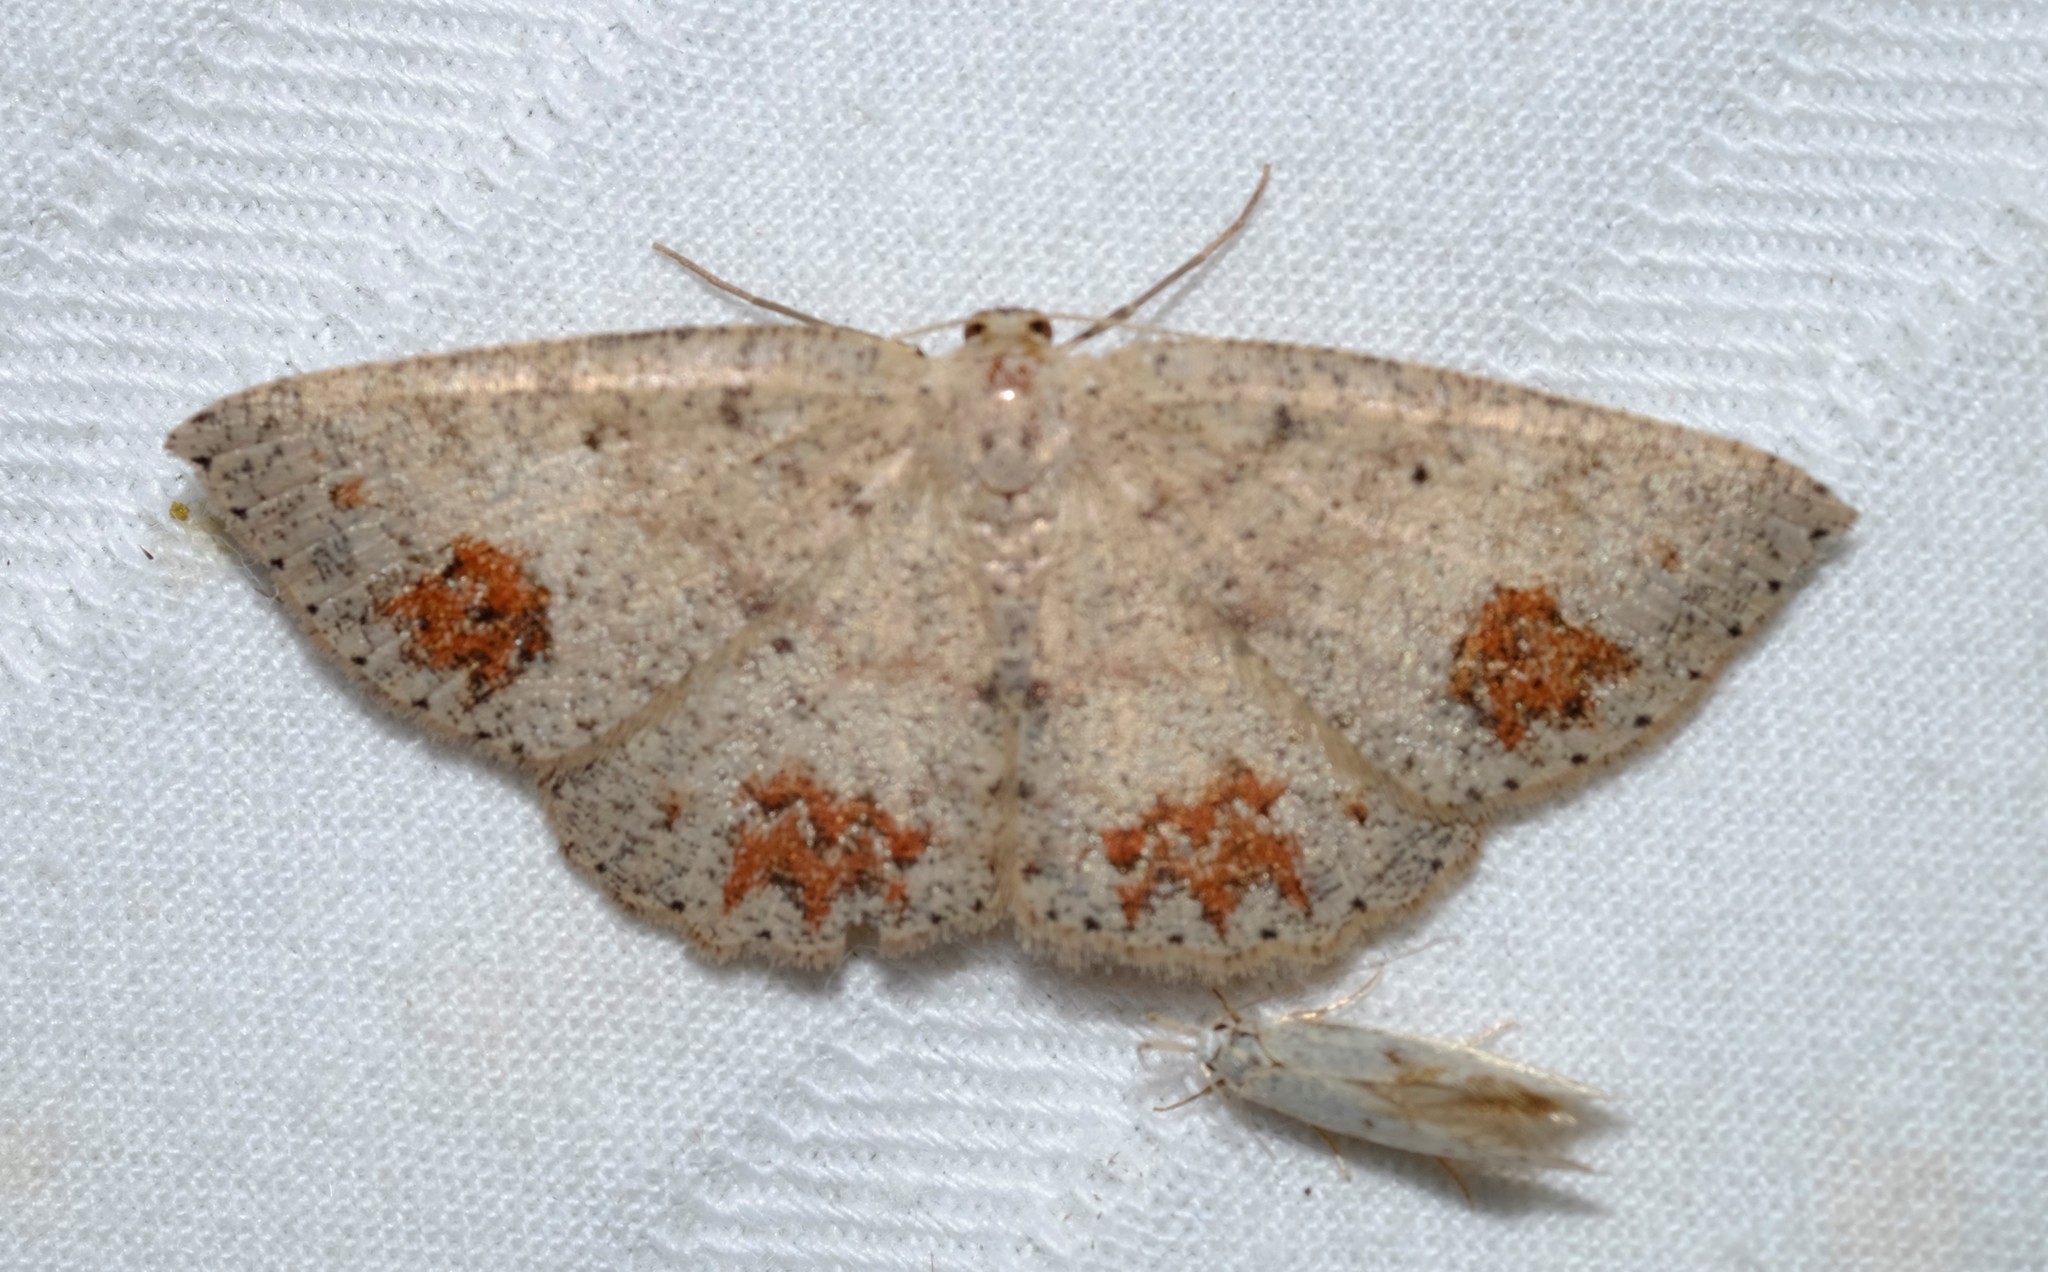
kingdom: Animalia
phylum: Arthropoda
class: Insecta
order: Lepidoptera
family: Geometridae
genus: Casbia
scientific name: Casbia celidosema
